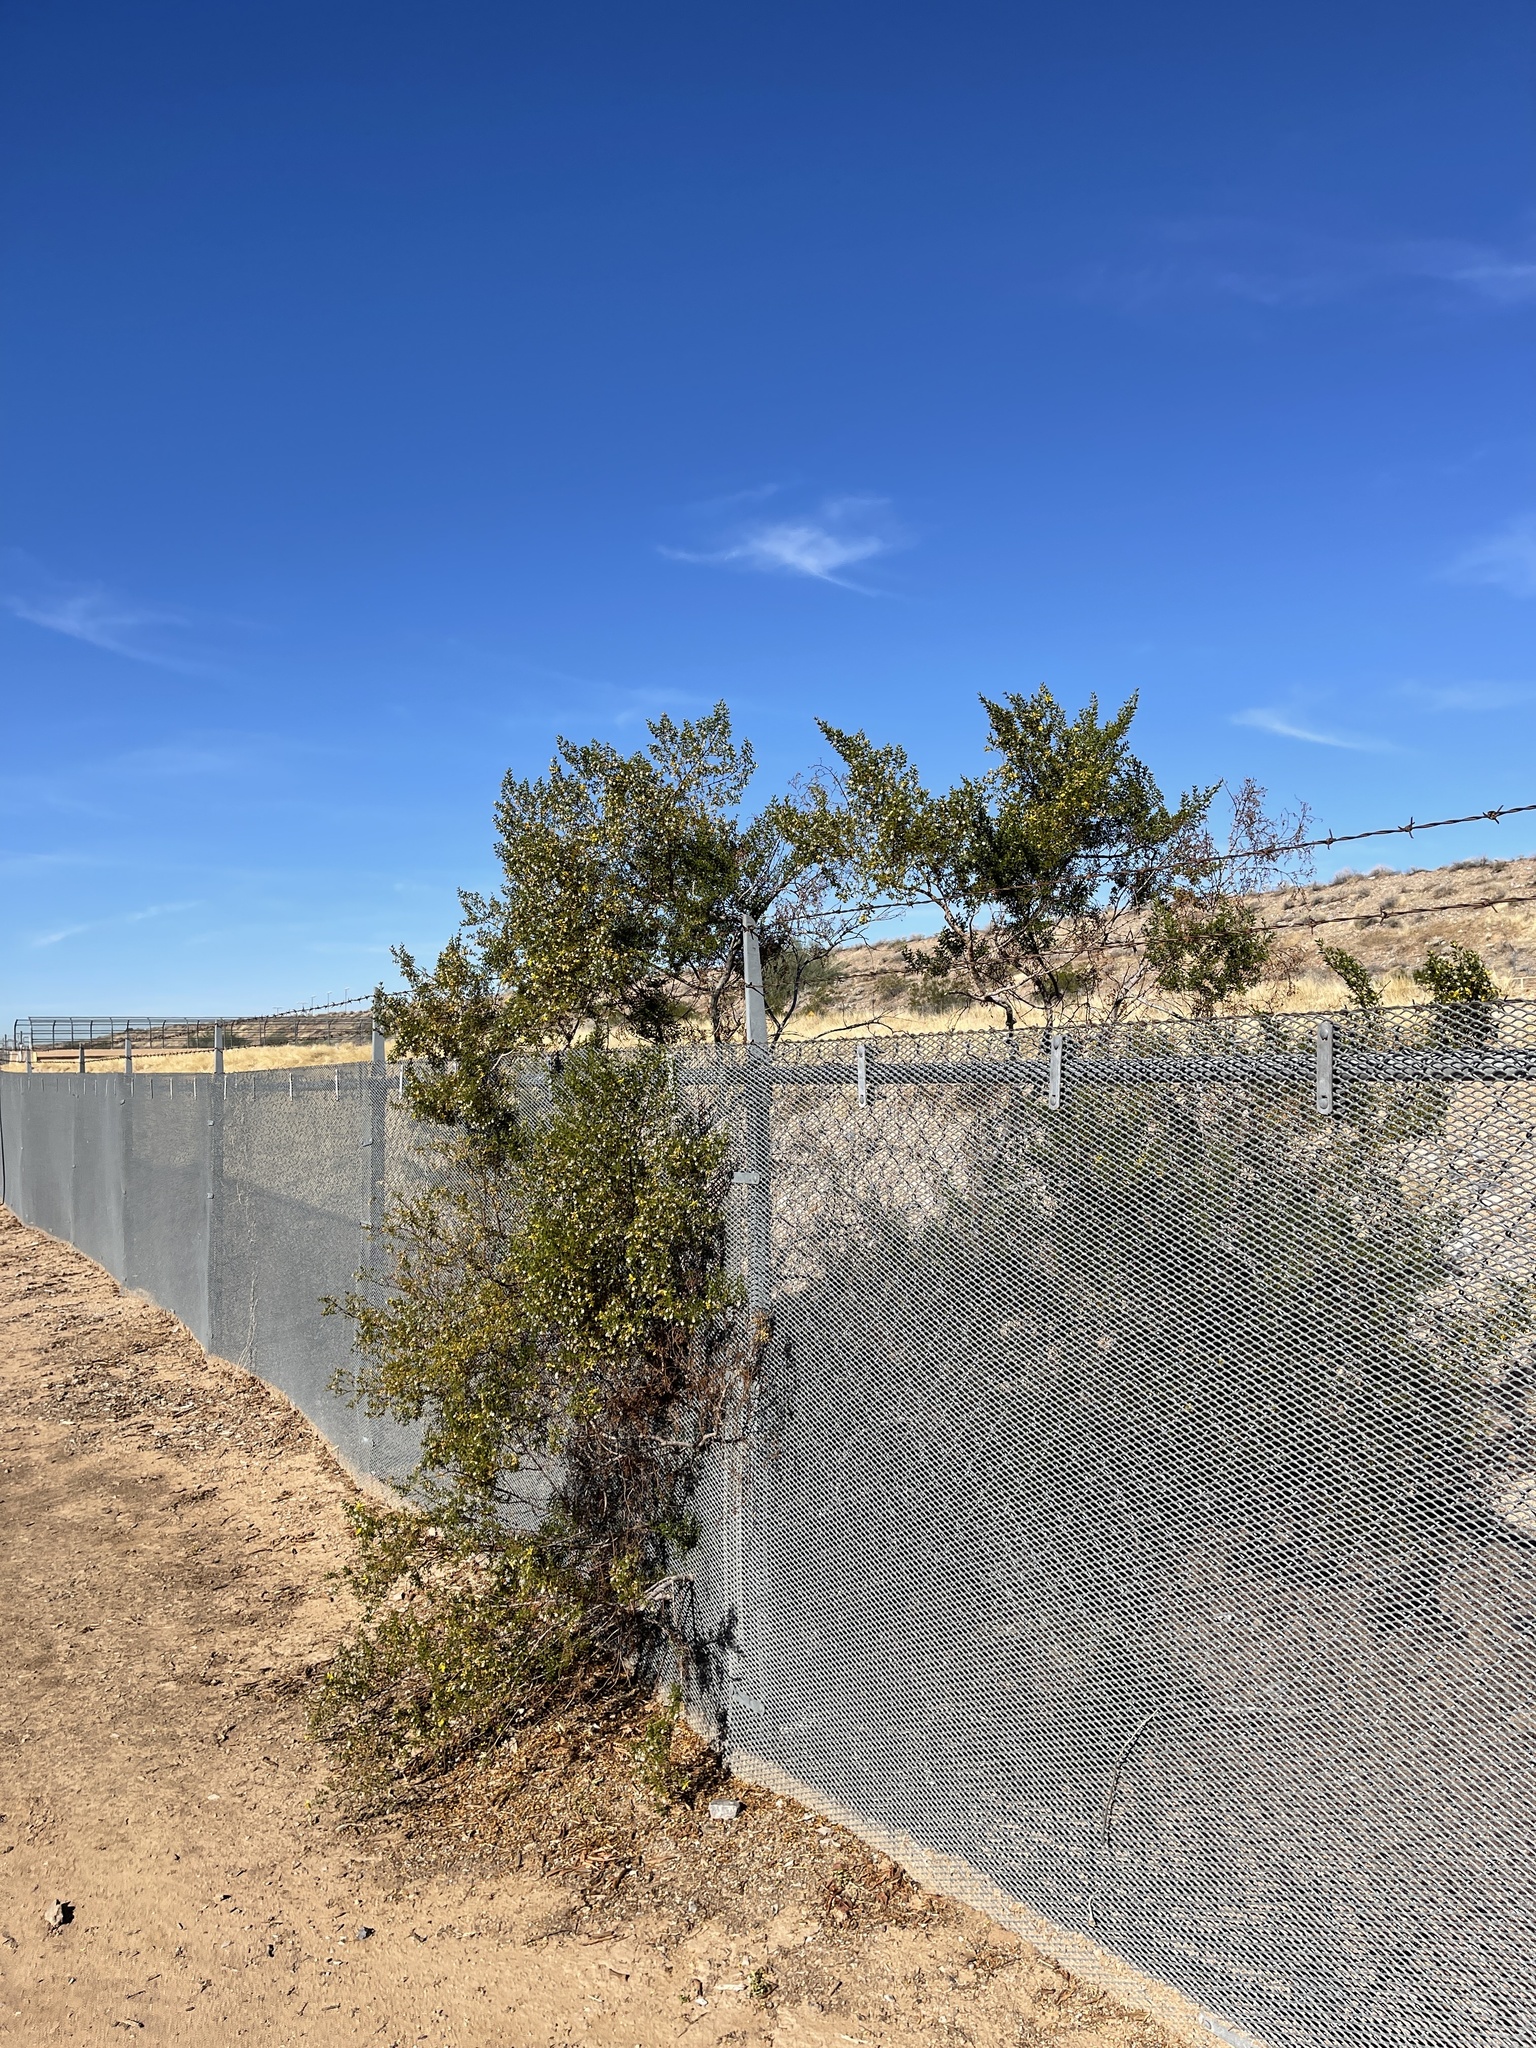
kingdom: Plantae
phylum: Tracheophyta
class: Magnoliopsida
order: Zygophyllales
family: Zygophyllaceae
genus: Larrea
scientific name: Larrea tridentata
